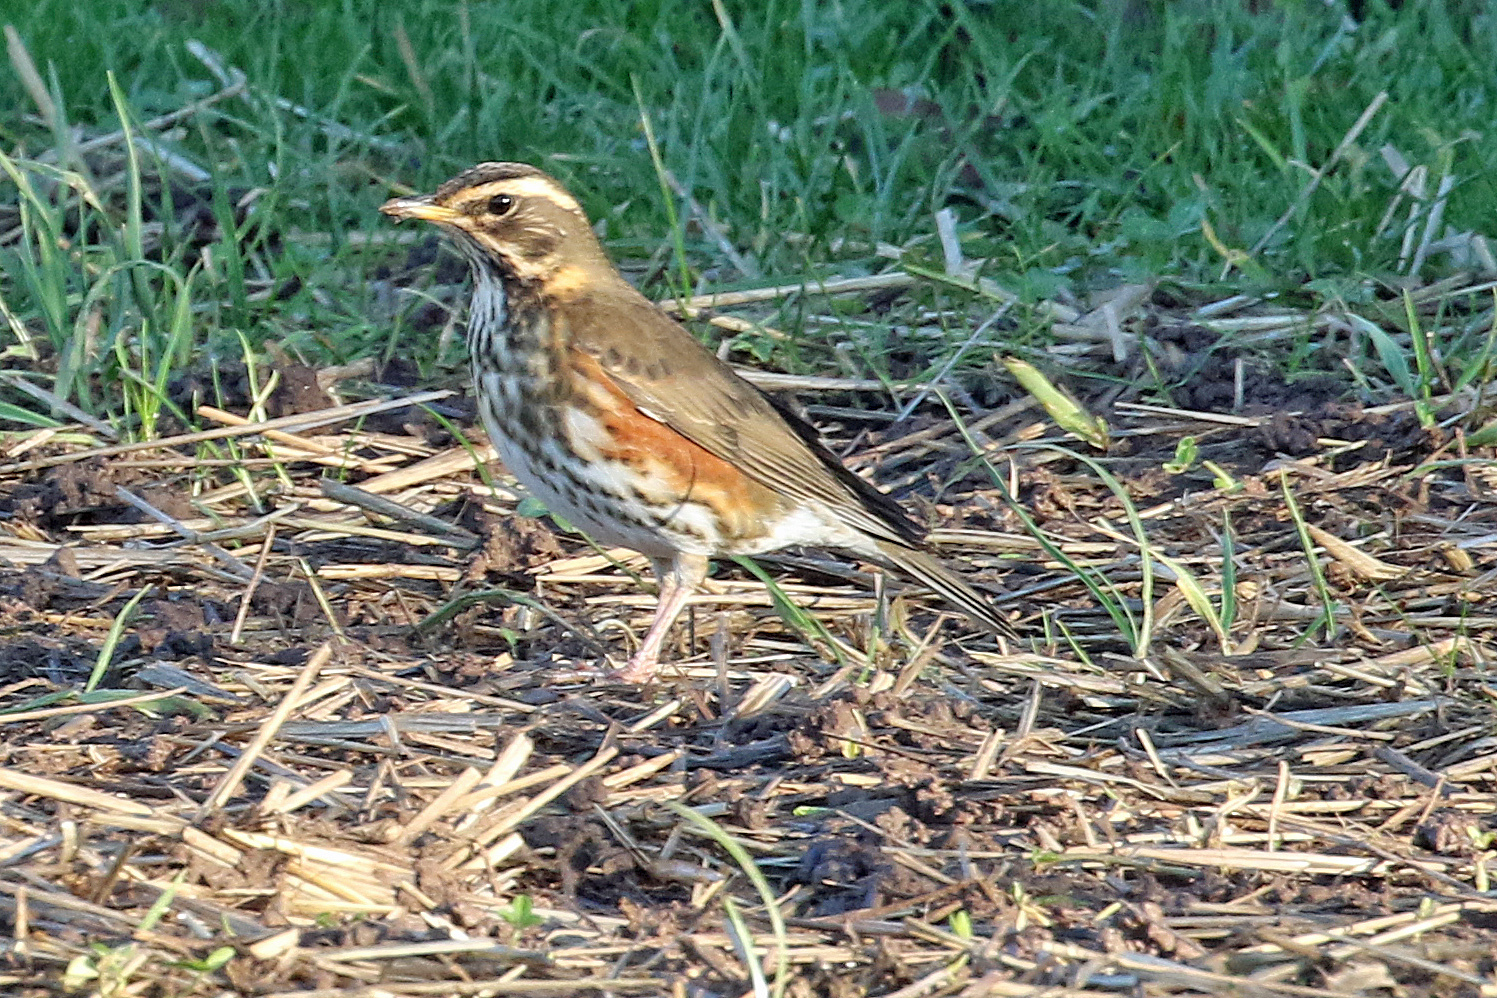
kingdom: Animalia
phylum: Chordata
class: Aves
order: Passeriformes
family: Turdidae
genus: Turdus
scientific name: Turdus iliacus
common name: Redwing
